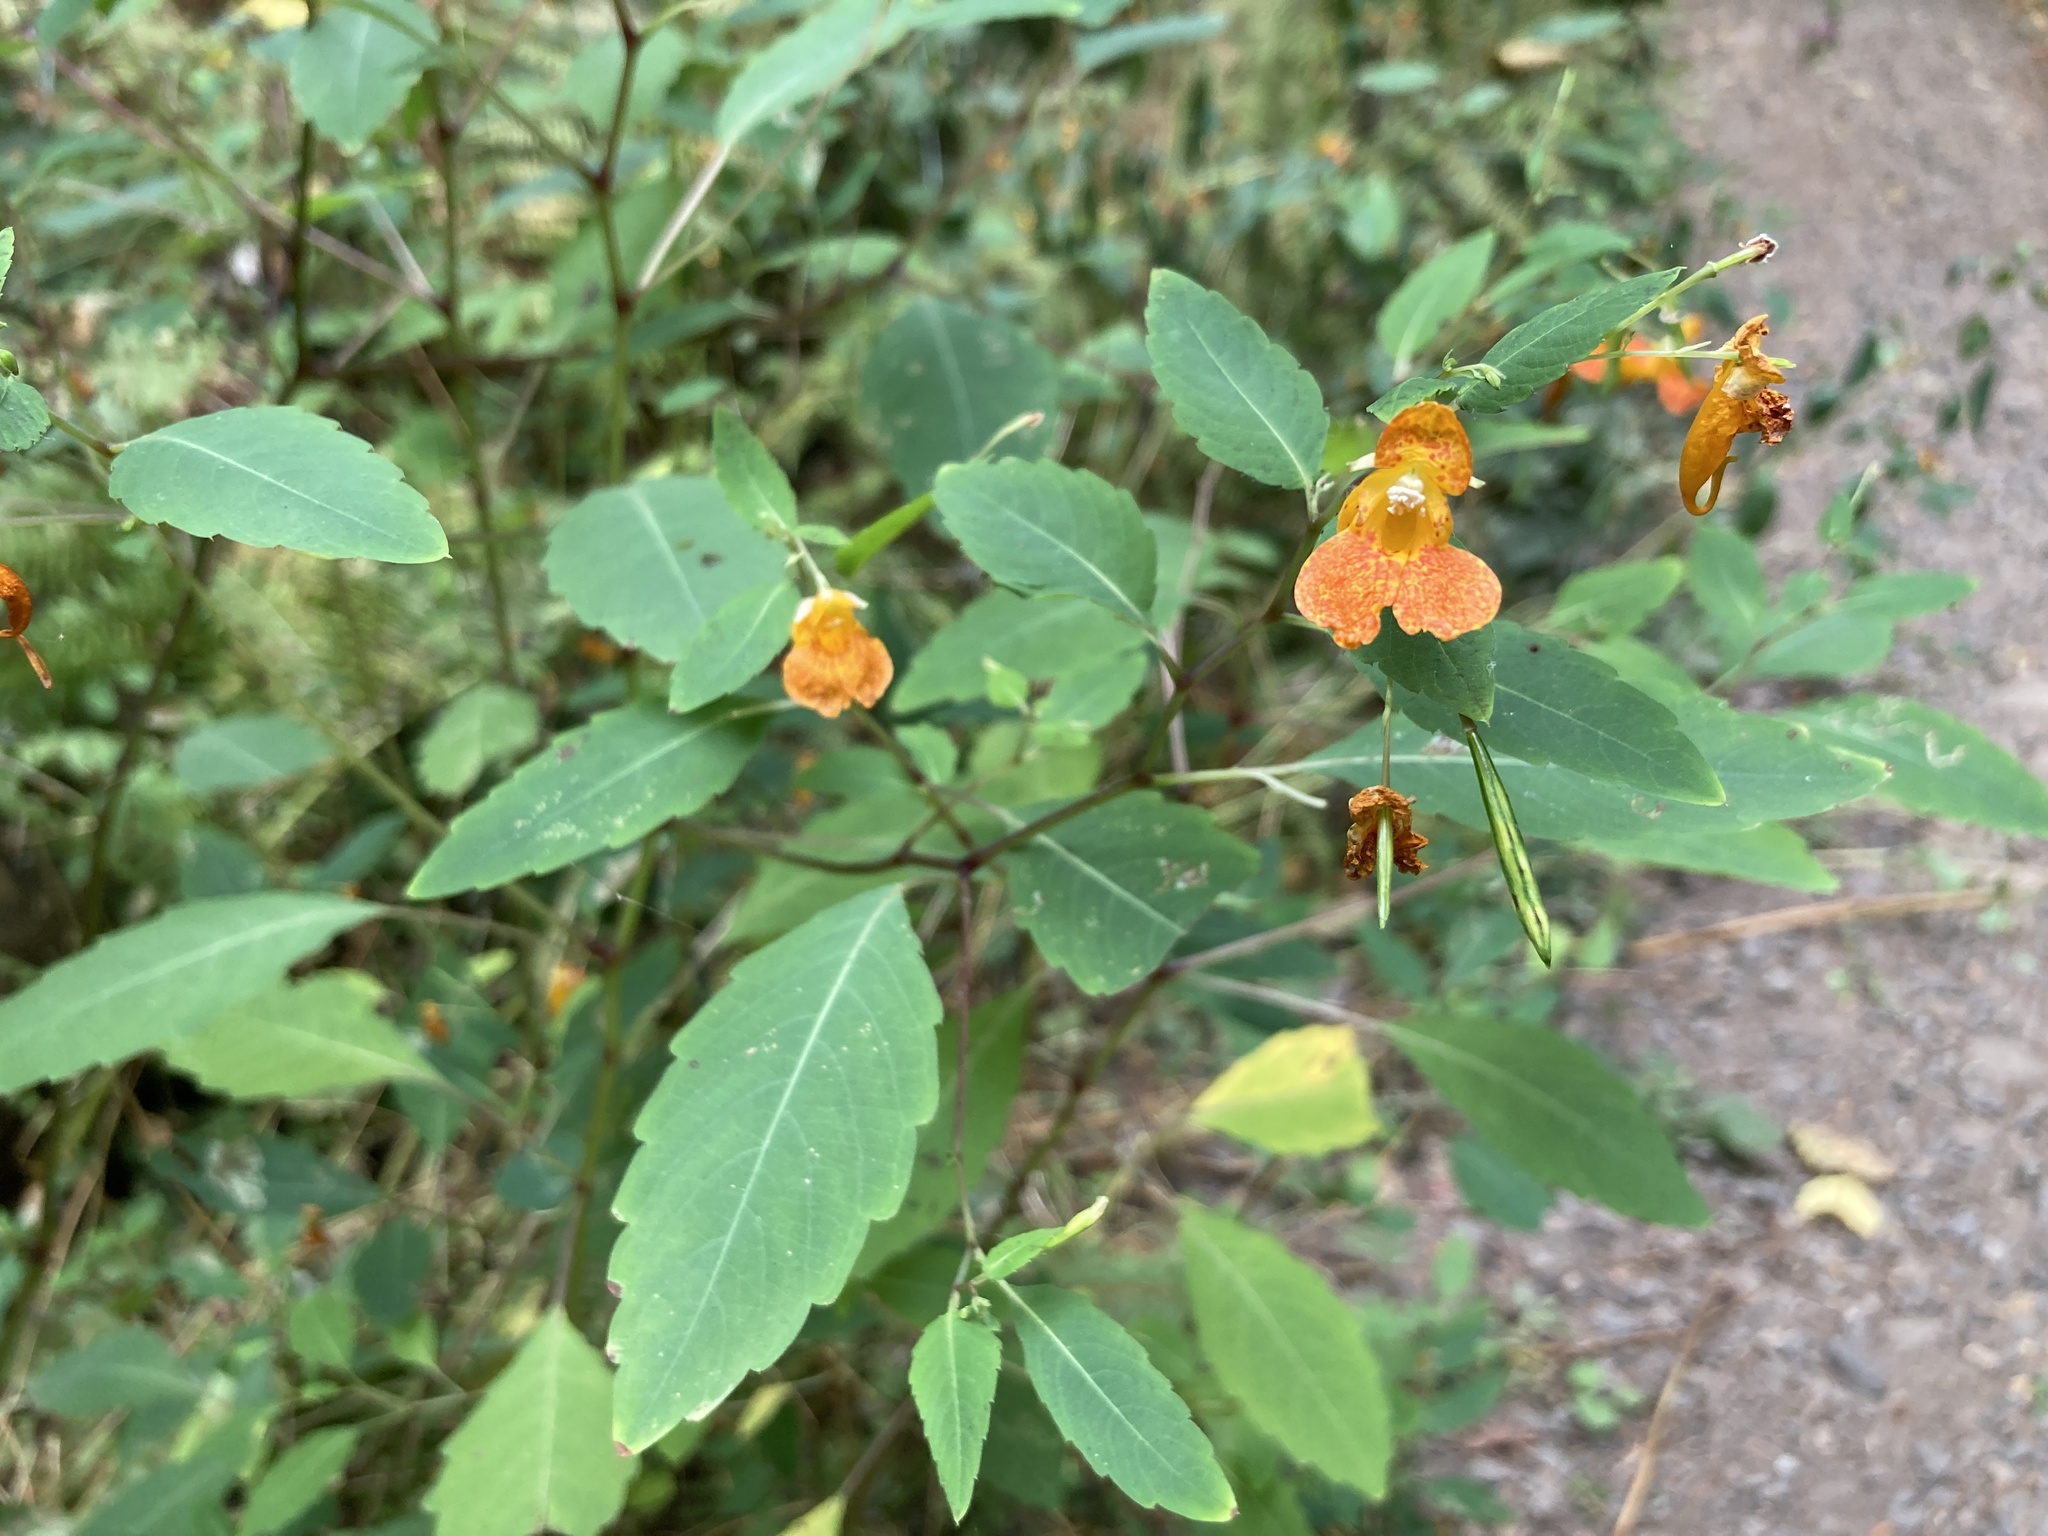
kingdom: Plantae
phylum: Tracheophyta
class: Magnoliopsida
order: Ericales
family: Balsaminaceae
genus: Impatiens
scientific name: Impatiens capensis
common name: Orange balsam
